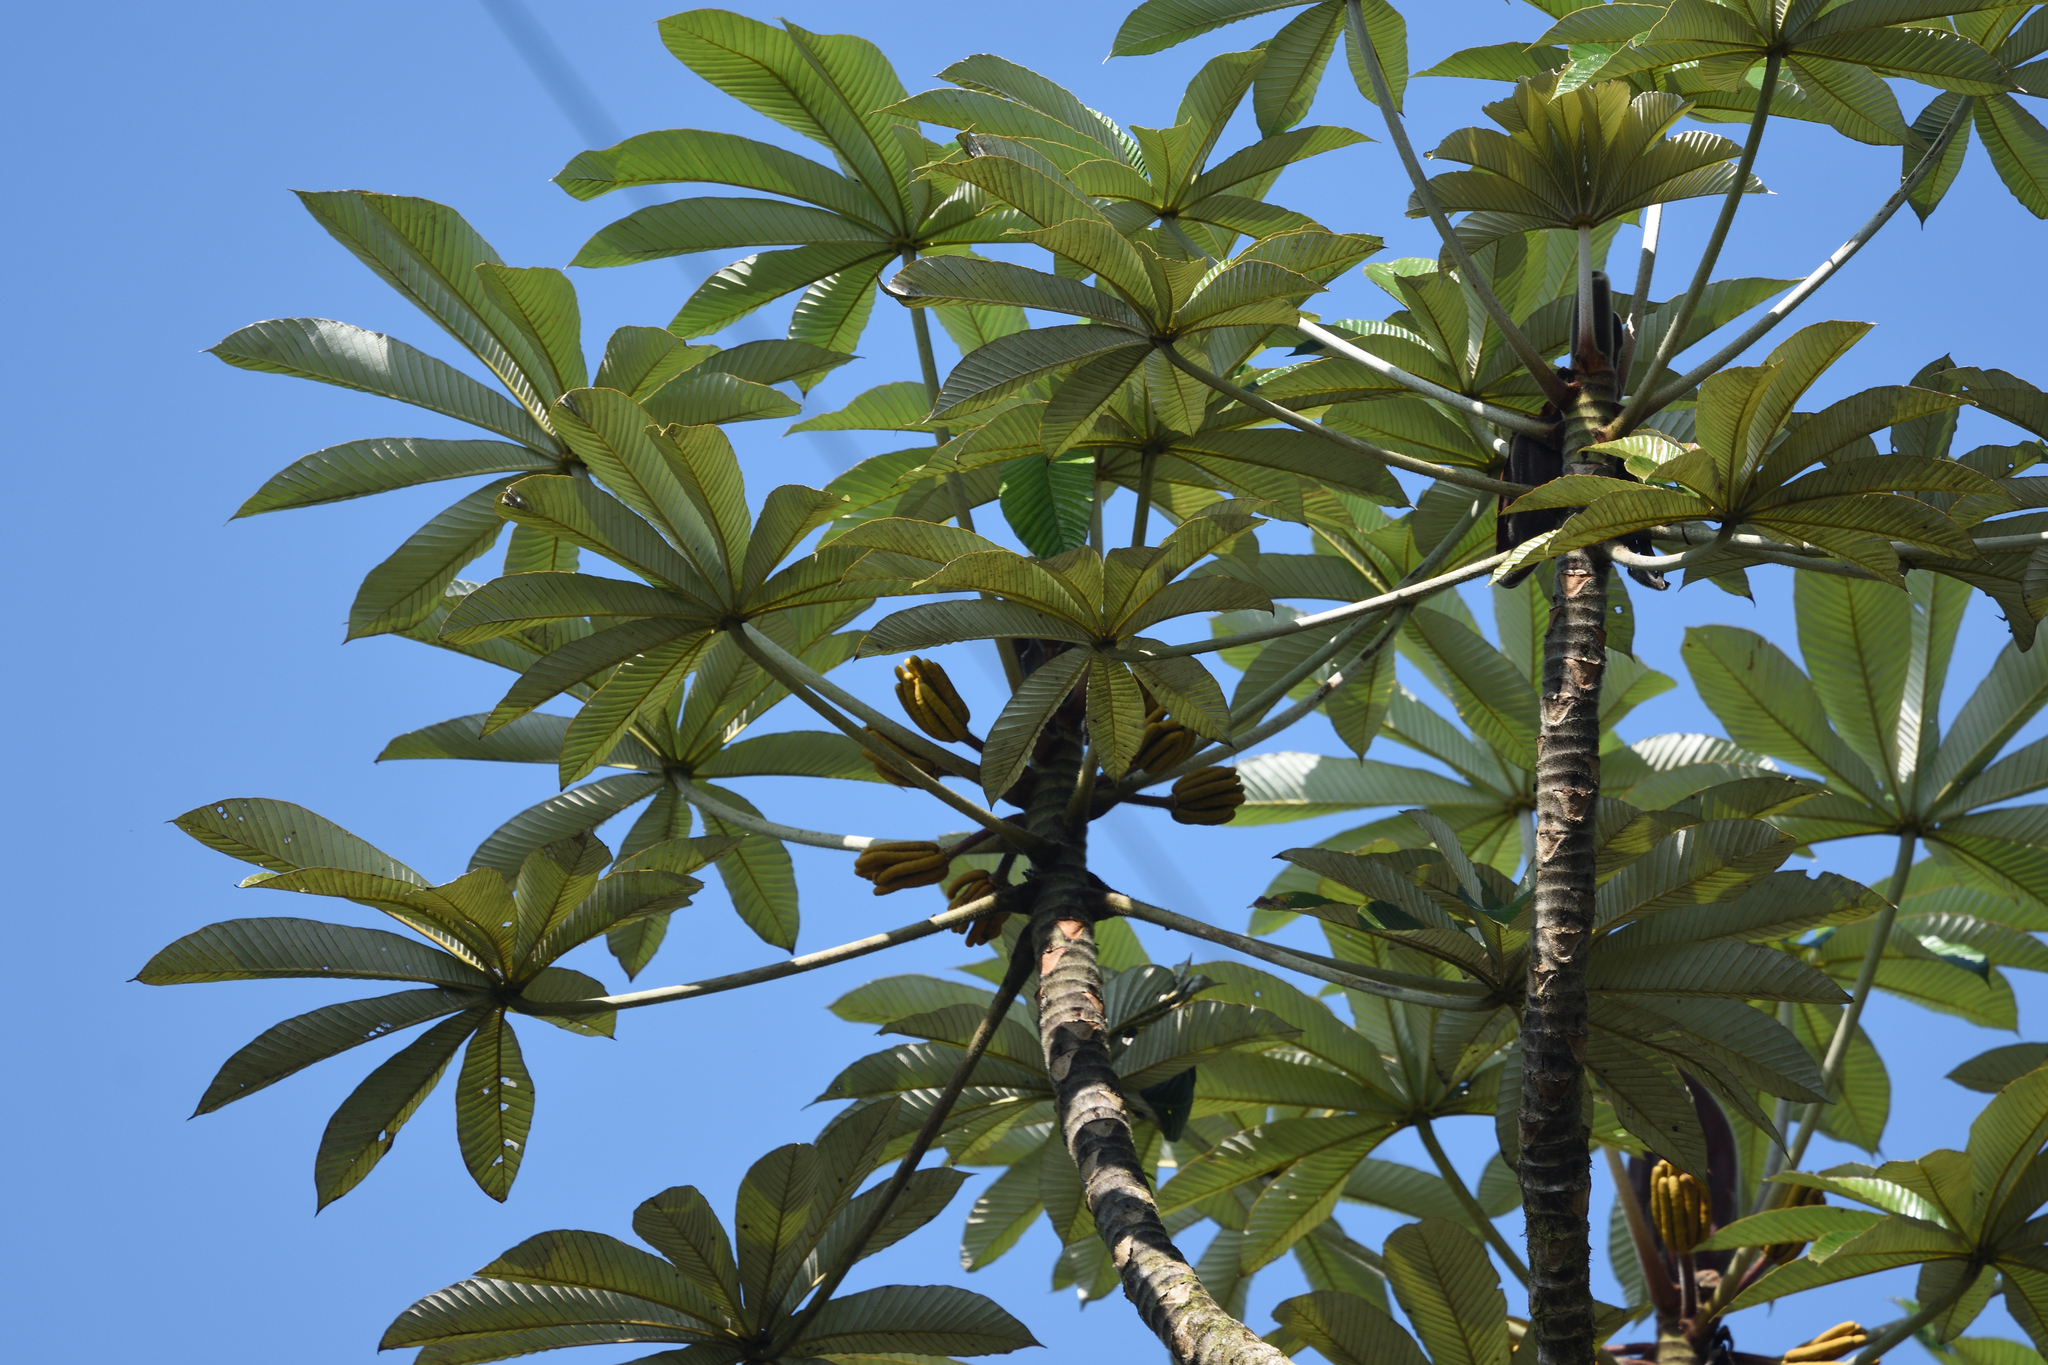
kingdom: Plantae
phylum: Tracheophyta
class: Magnoliopsida
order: Rosales
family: Urticaceae
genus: Cecropia
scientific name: Cecropia hispidissima
